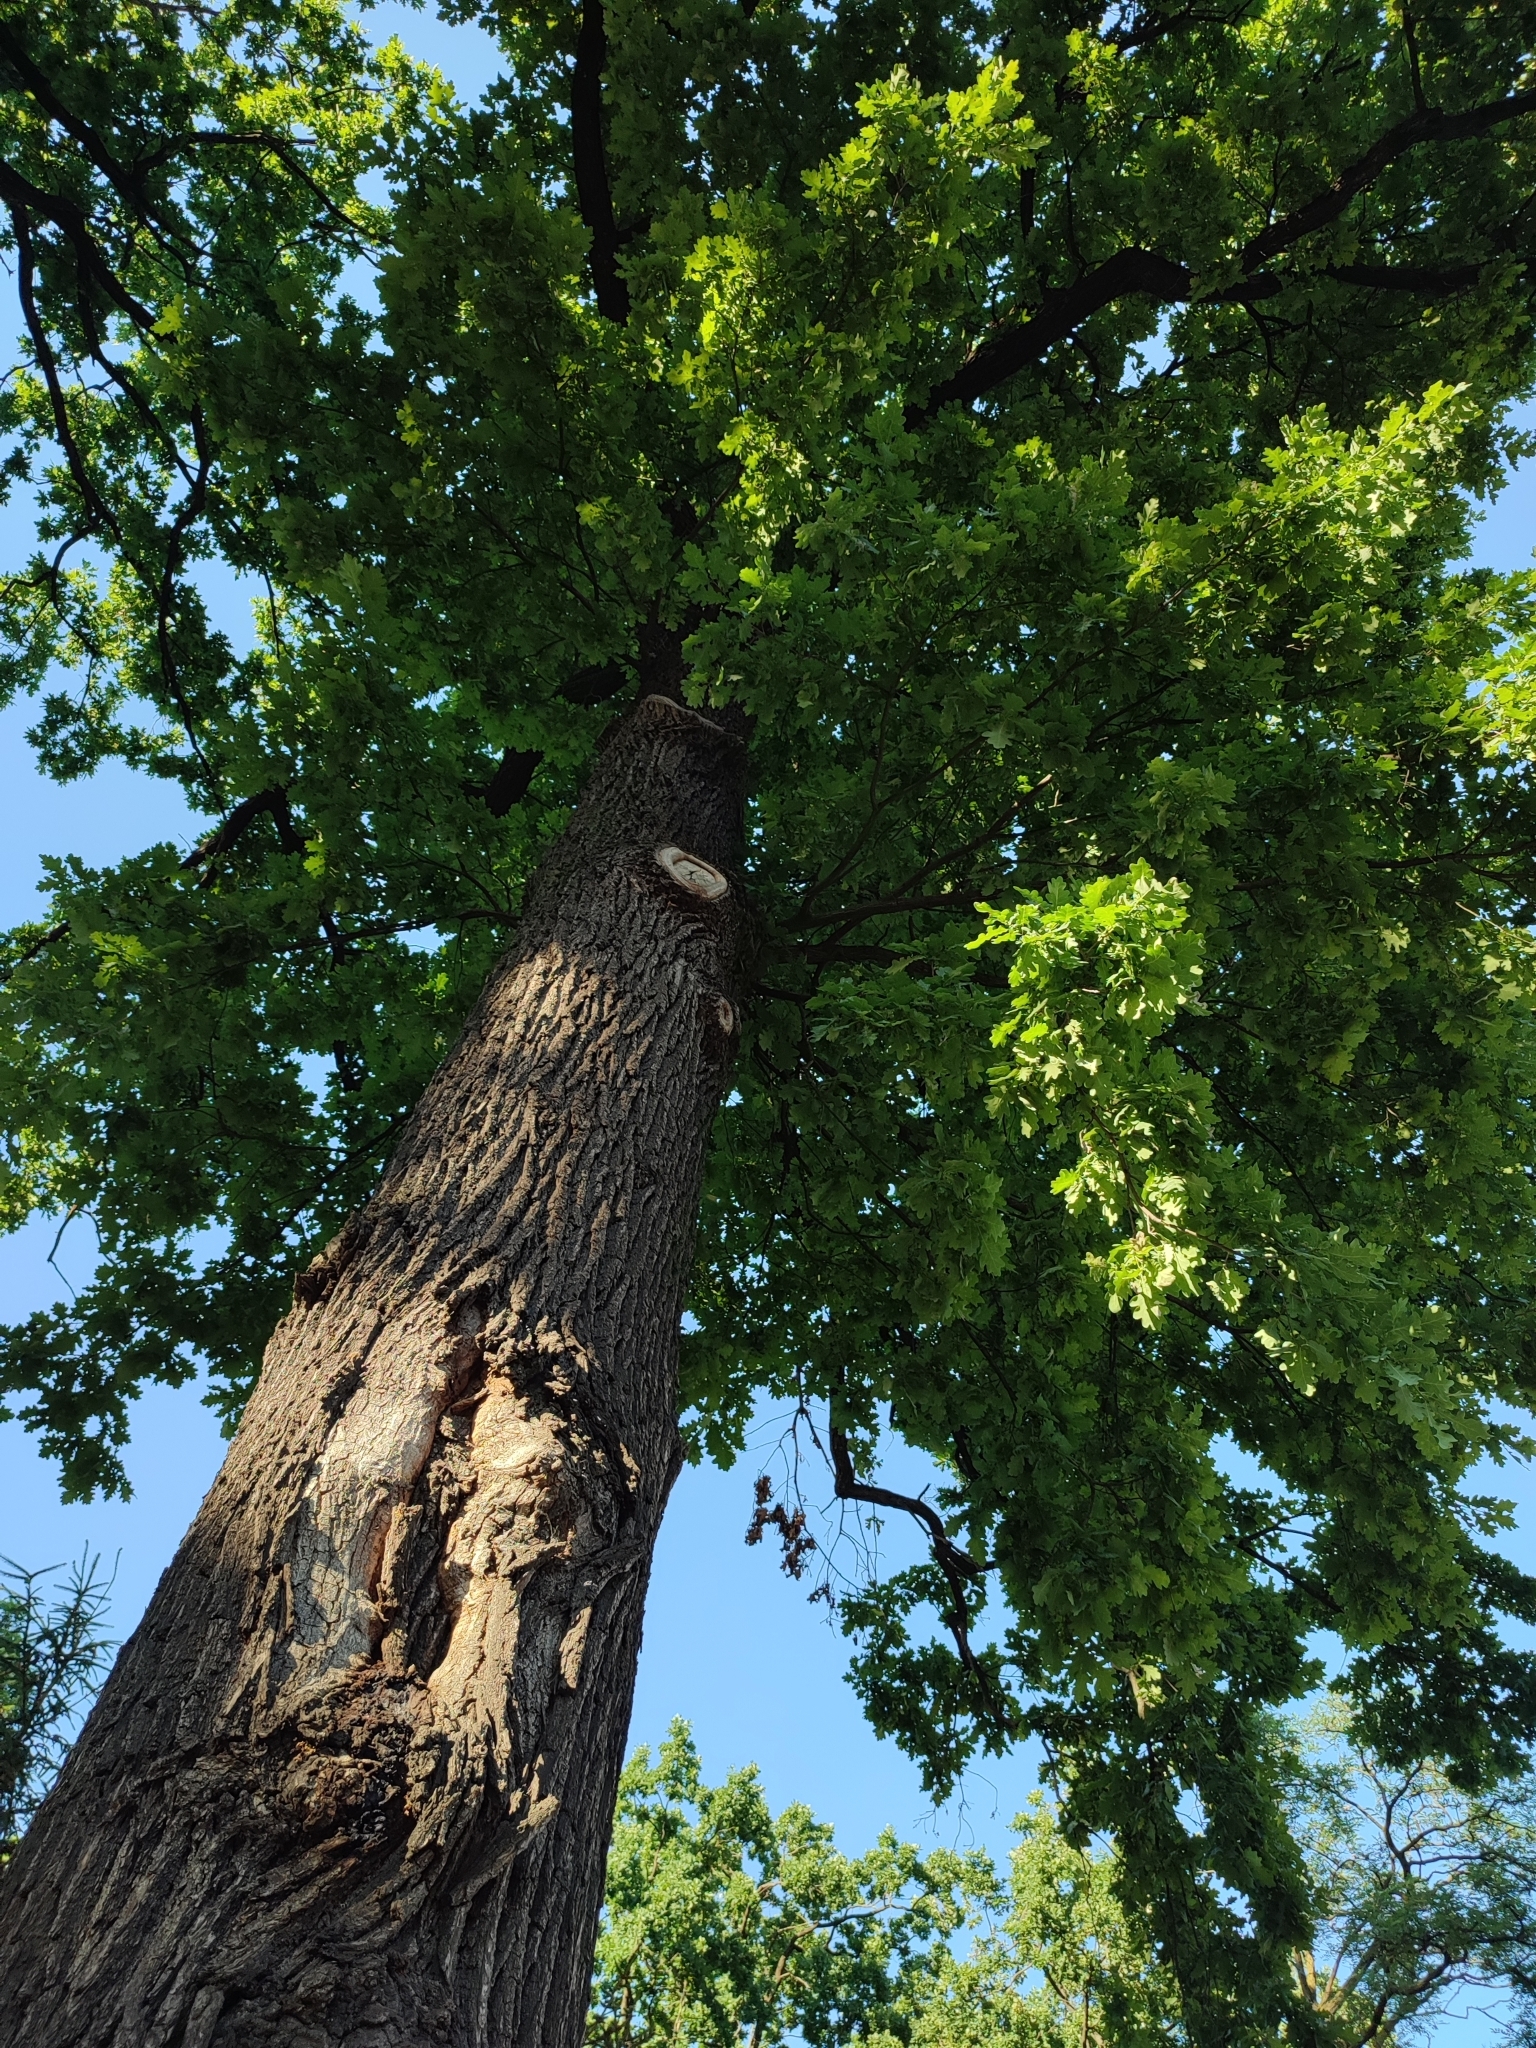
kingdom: Plantae
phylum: Tracheophyta
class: Magnoliopsida
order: Fagales
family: Fagaceae
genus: Quercus
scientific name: Quercus robur
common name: Pedunculate oak
